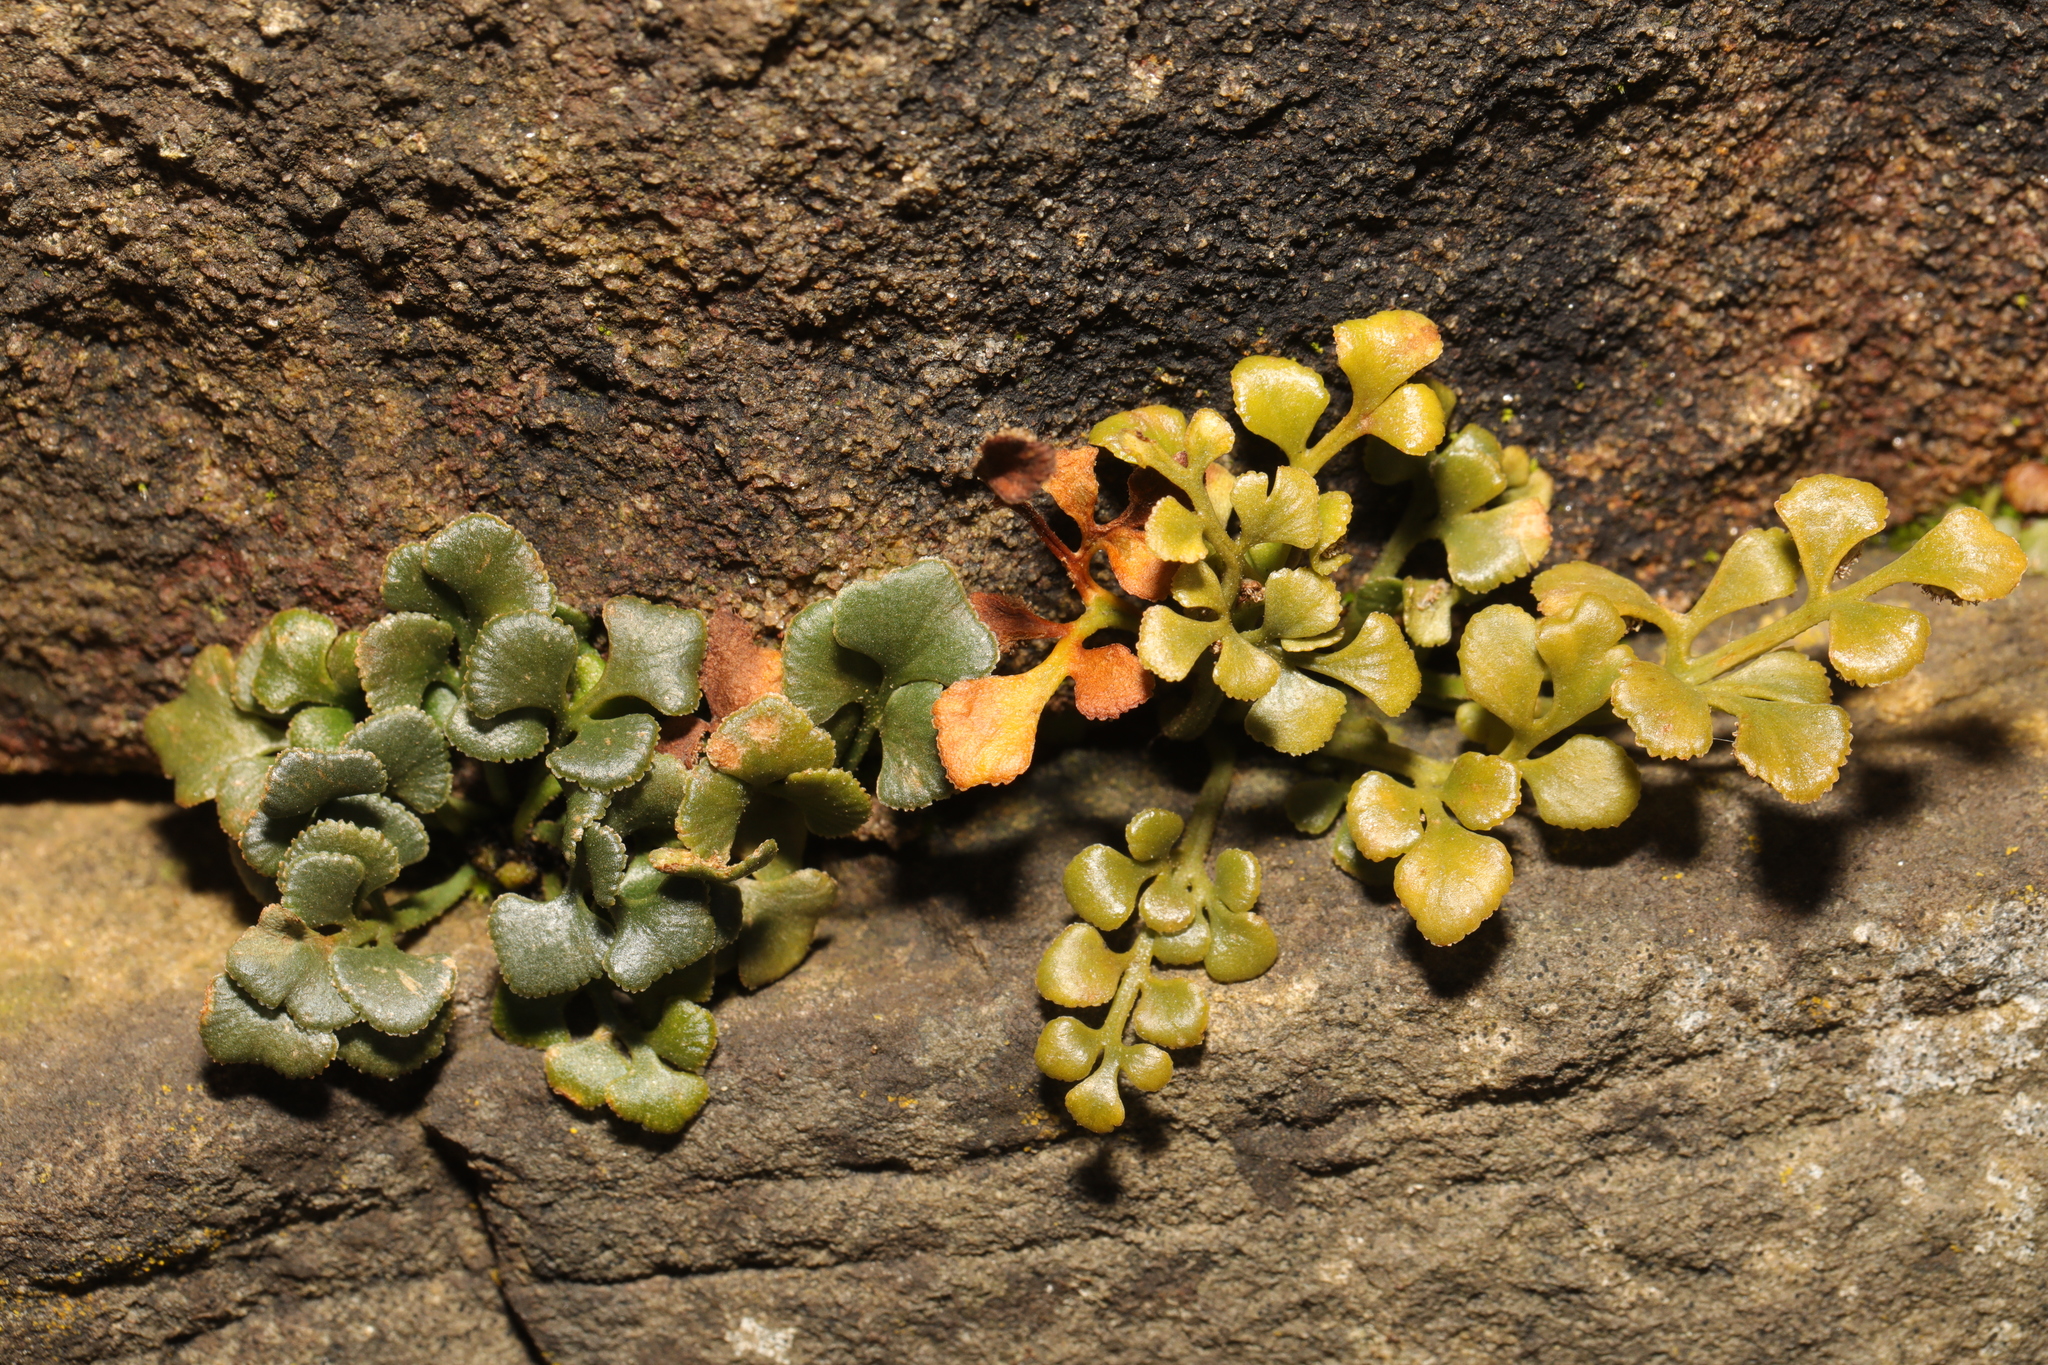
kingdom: Plantae
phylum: Tracheophyta
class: Polypodiopsida
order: Polypodiales
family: Aspleniaceae
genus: Asplenium
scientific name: Asplenium ruta-muraria
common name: Wall-rue
